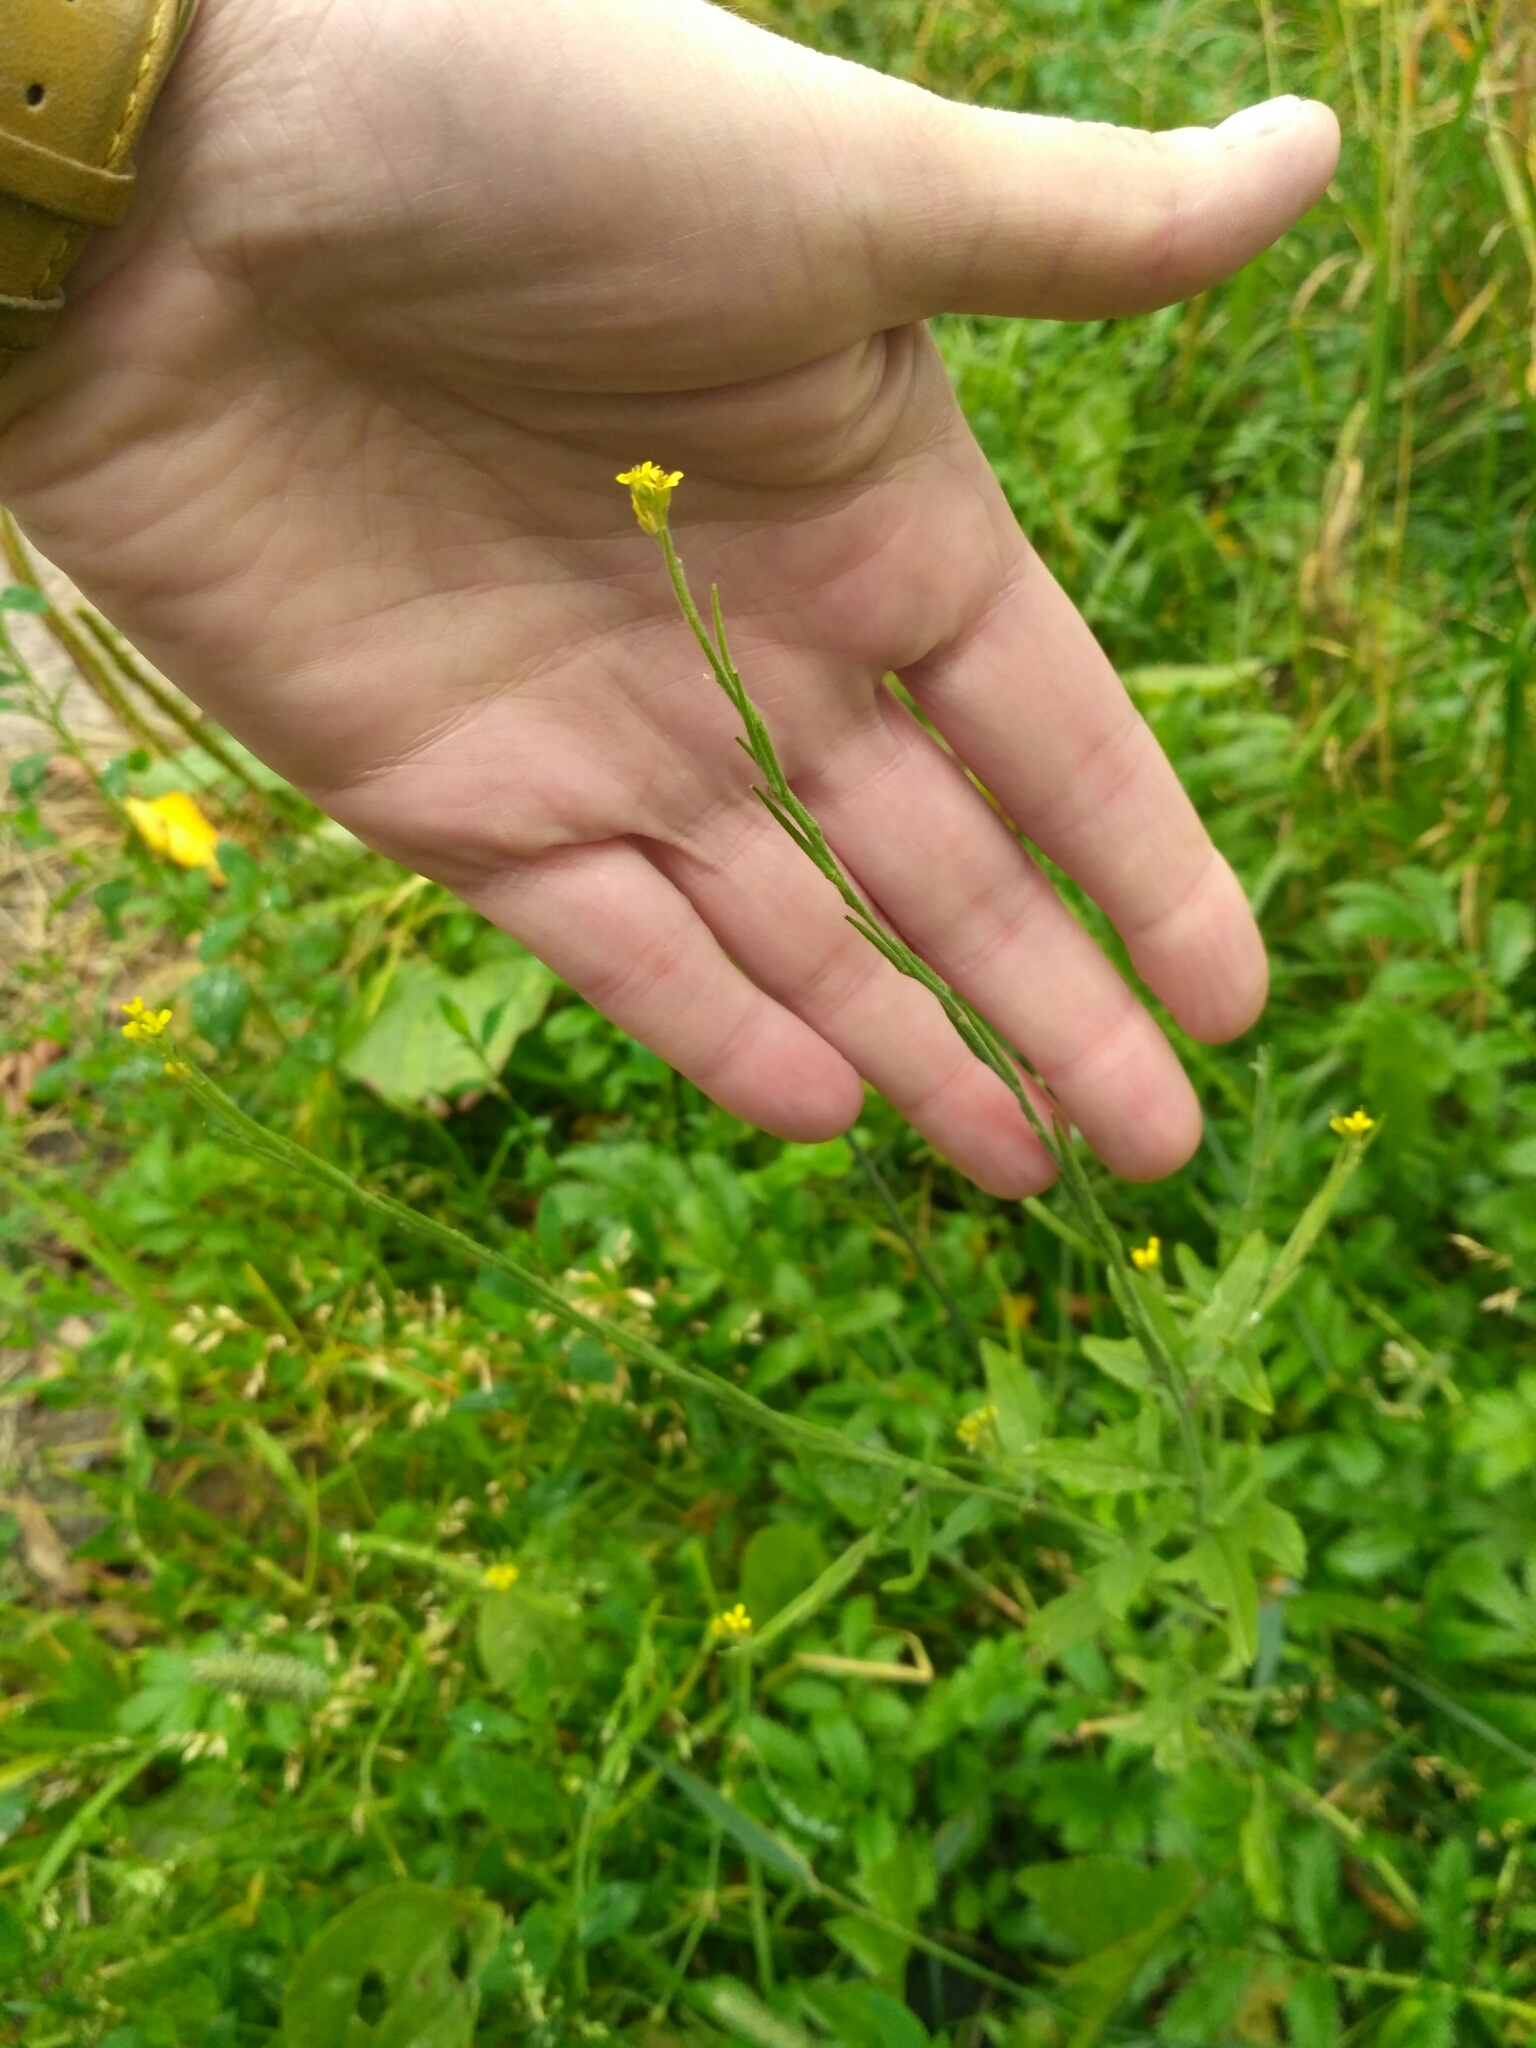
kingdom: Plantae
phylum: Tracheophyta
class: Magnoliopsida
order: Brassicales
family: Brassicaceae
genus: Sisymbrium
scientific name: Sisymbrium officinale
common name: Hedge mustard
